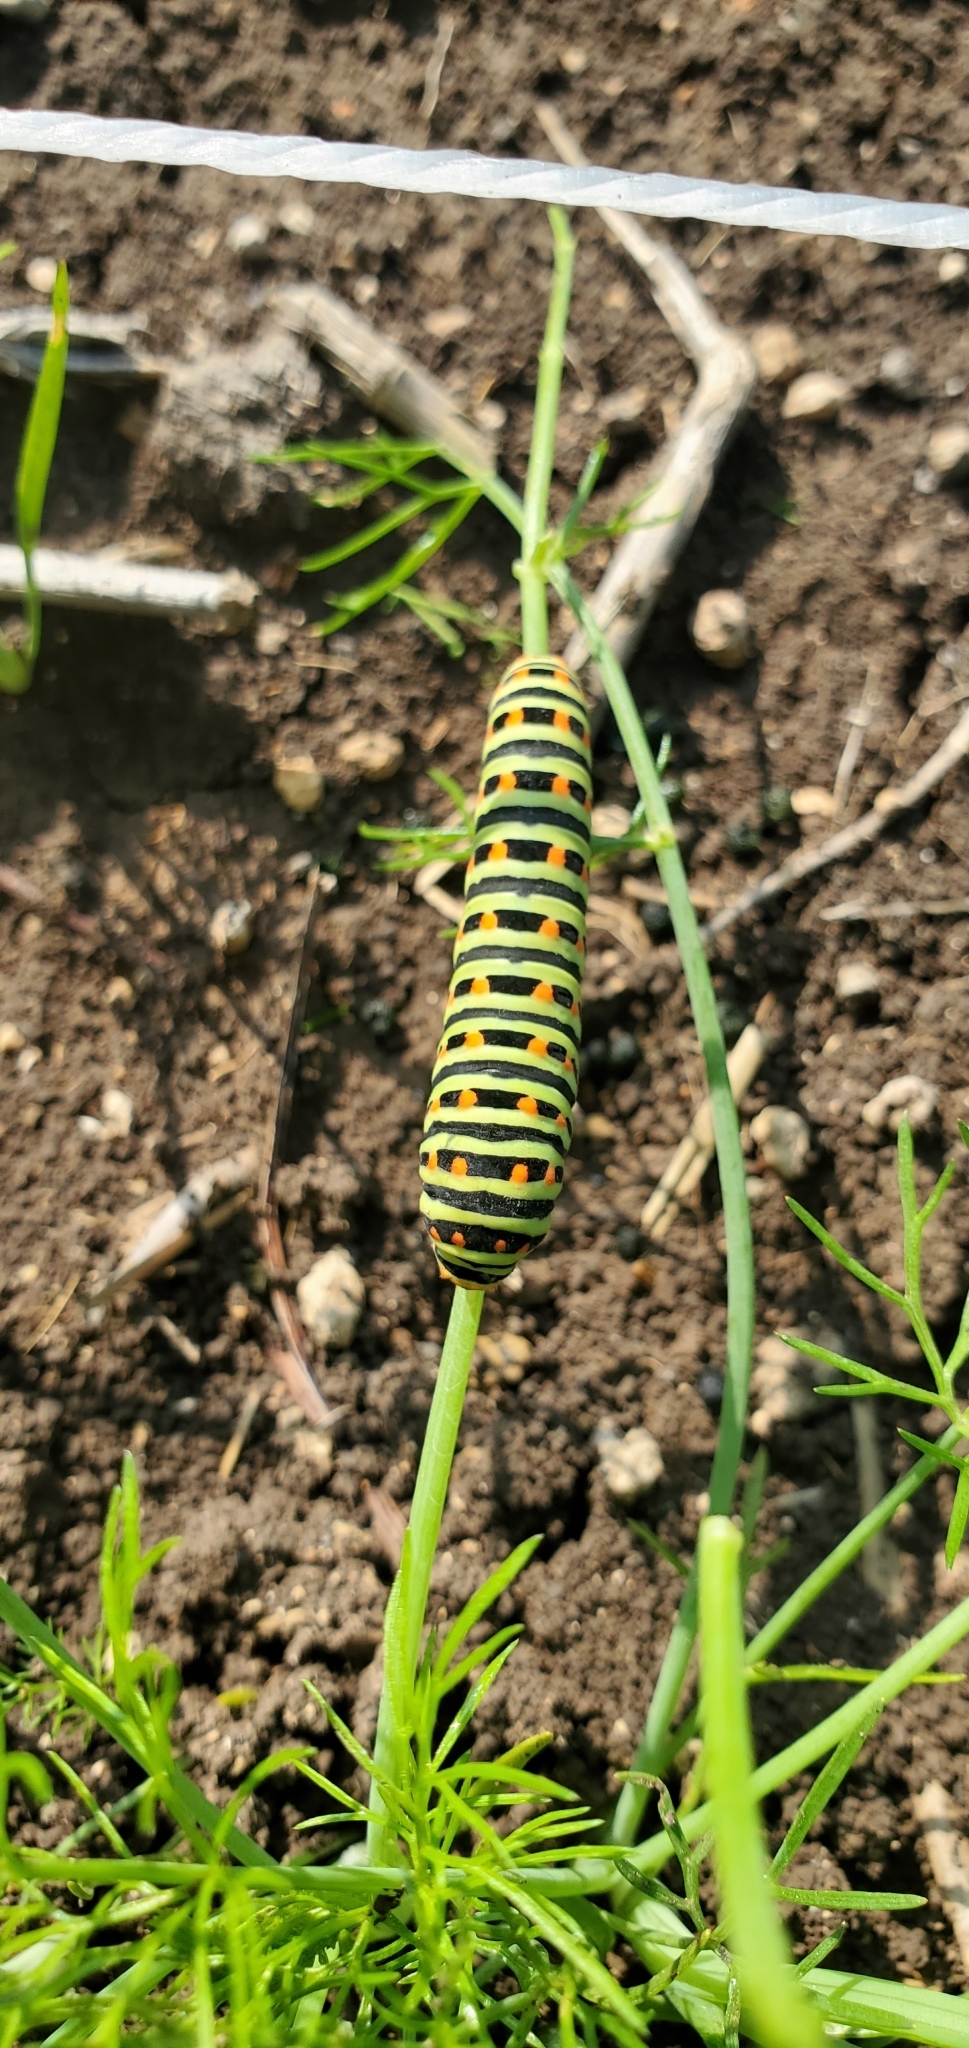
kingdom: Animalia
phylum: Arthropoda
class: Insecta
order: Lepidoptera
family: Papilionidae
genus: Papilio
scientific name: Papilio machaon
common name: Swallowtail
